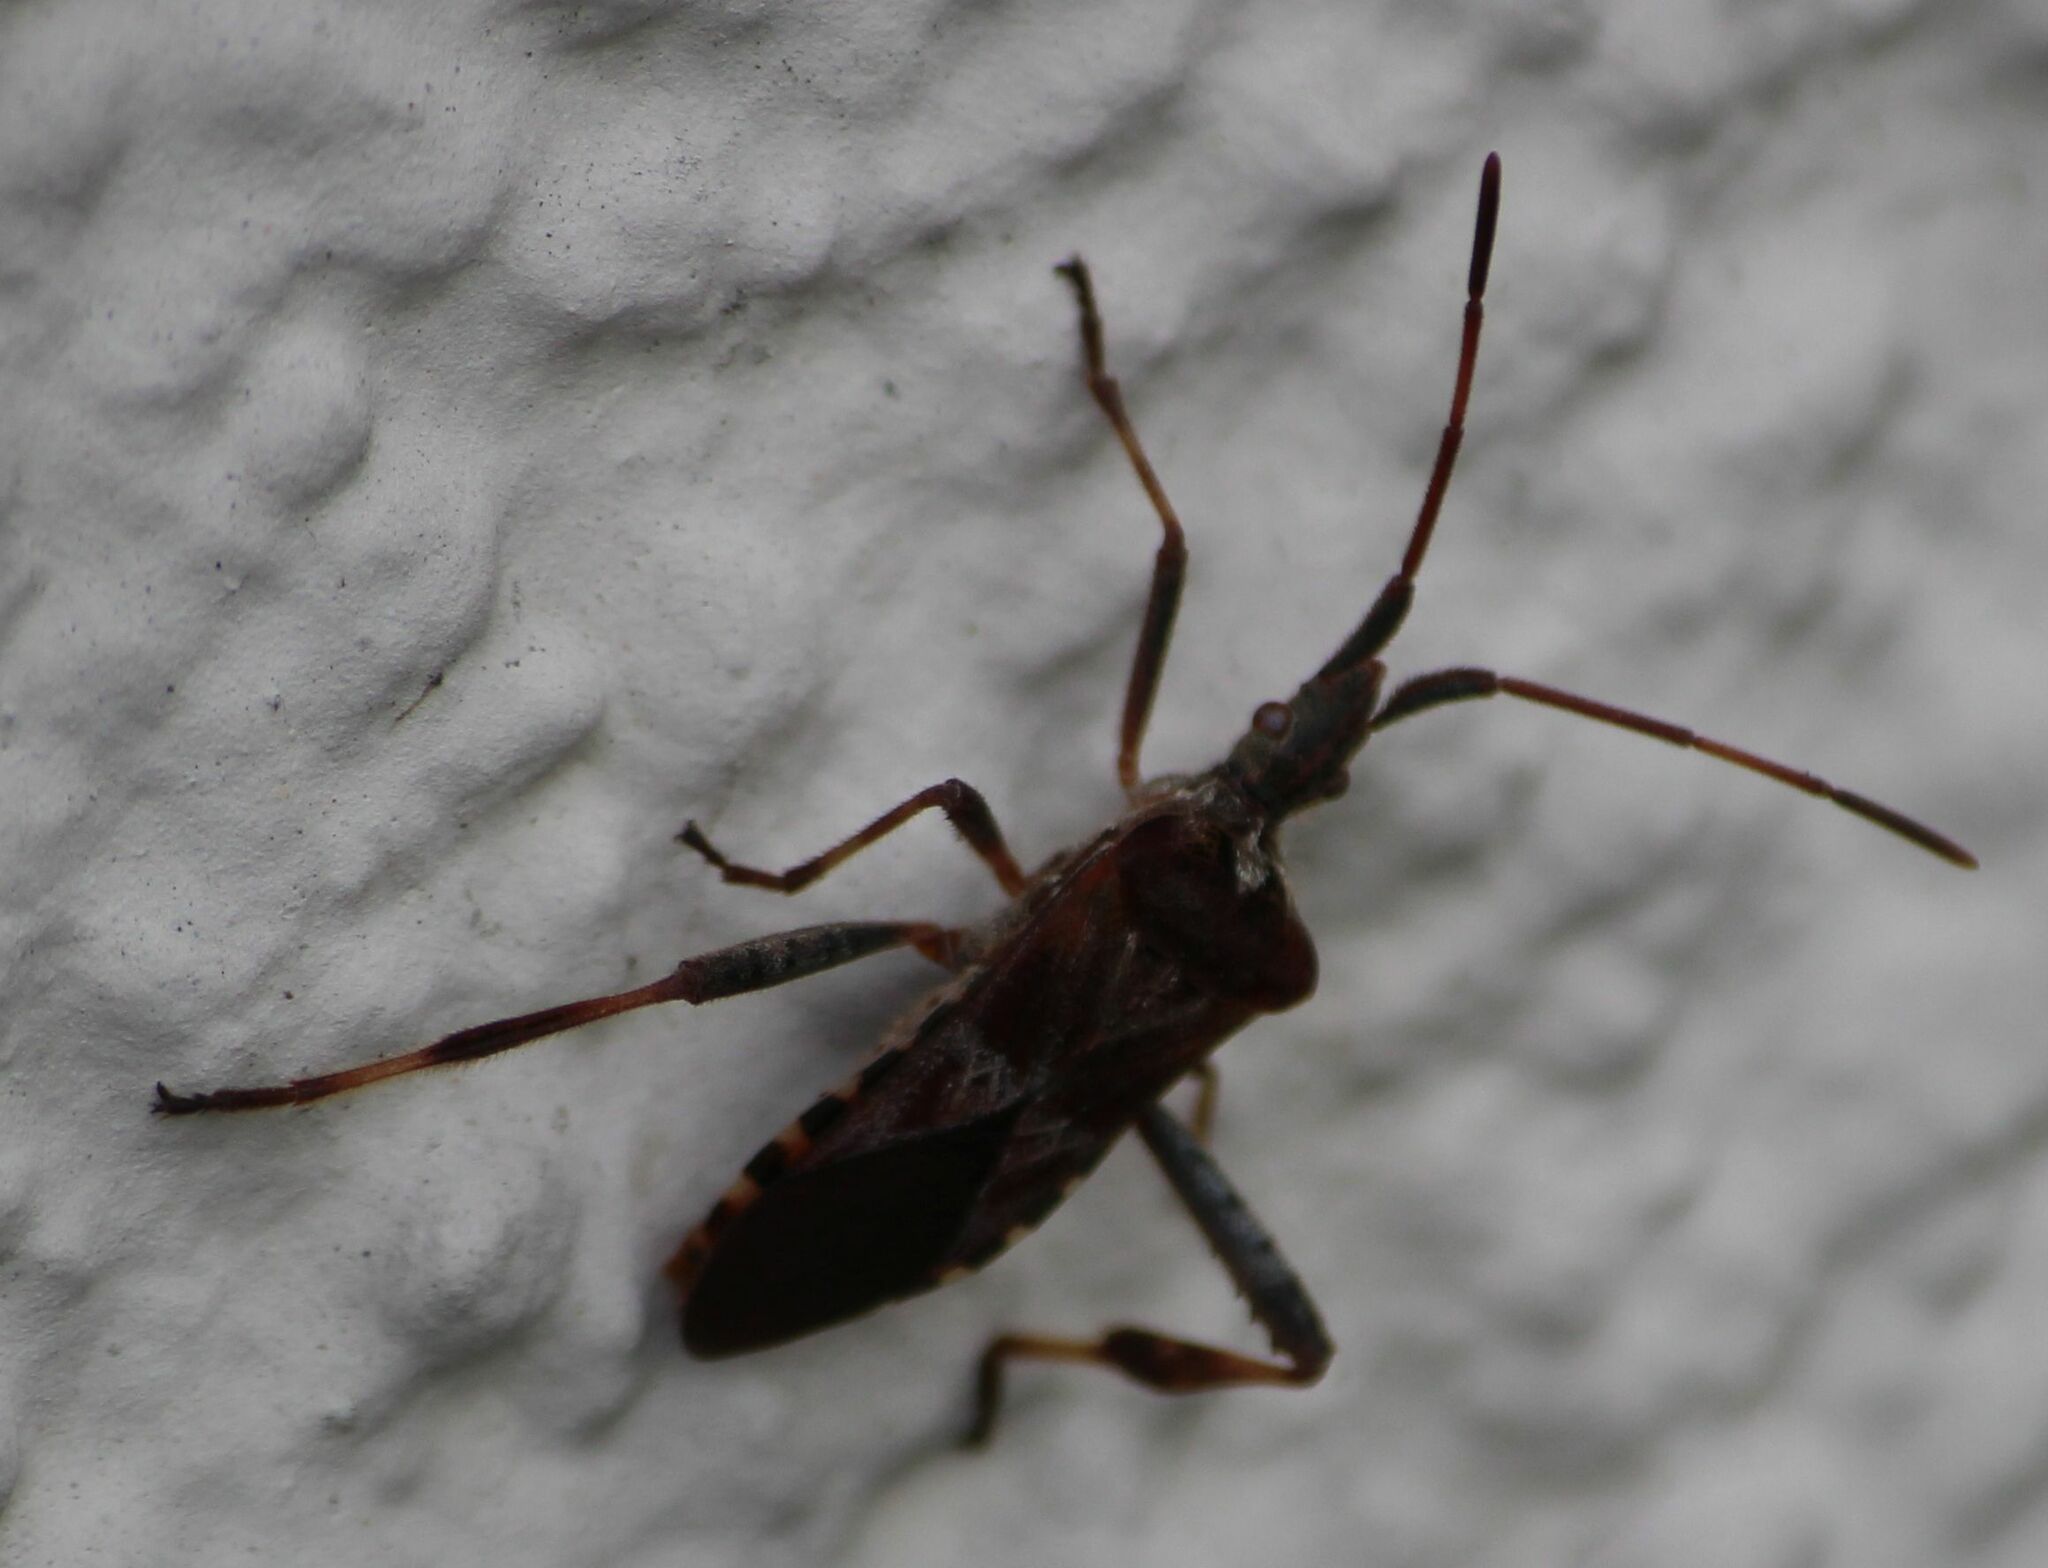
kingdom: Animalia
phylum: Arthropoda
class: Insecta
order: Hemiptera
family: Coreidae
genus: Leptoglossus
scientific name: Leptoglossus occidentalis
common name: Western conifer-seed bug
